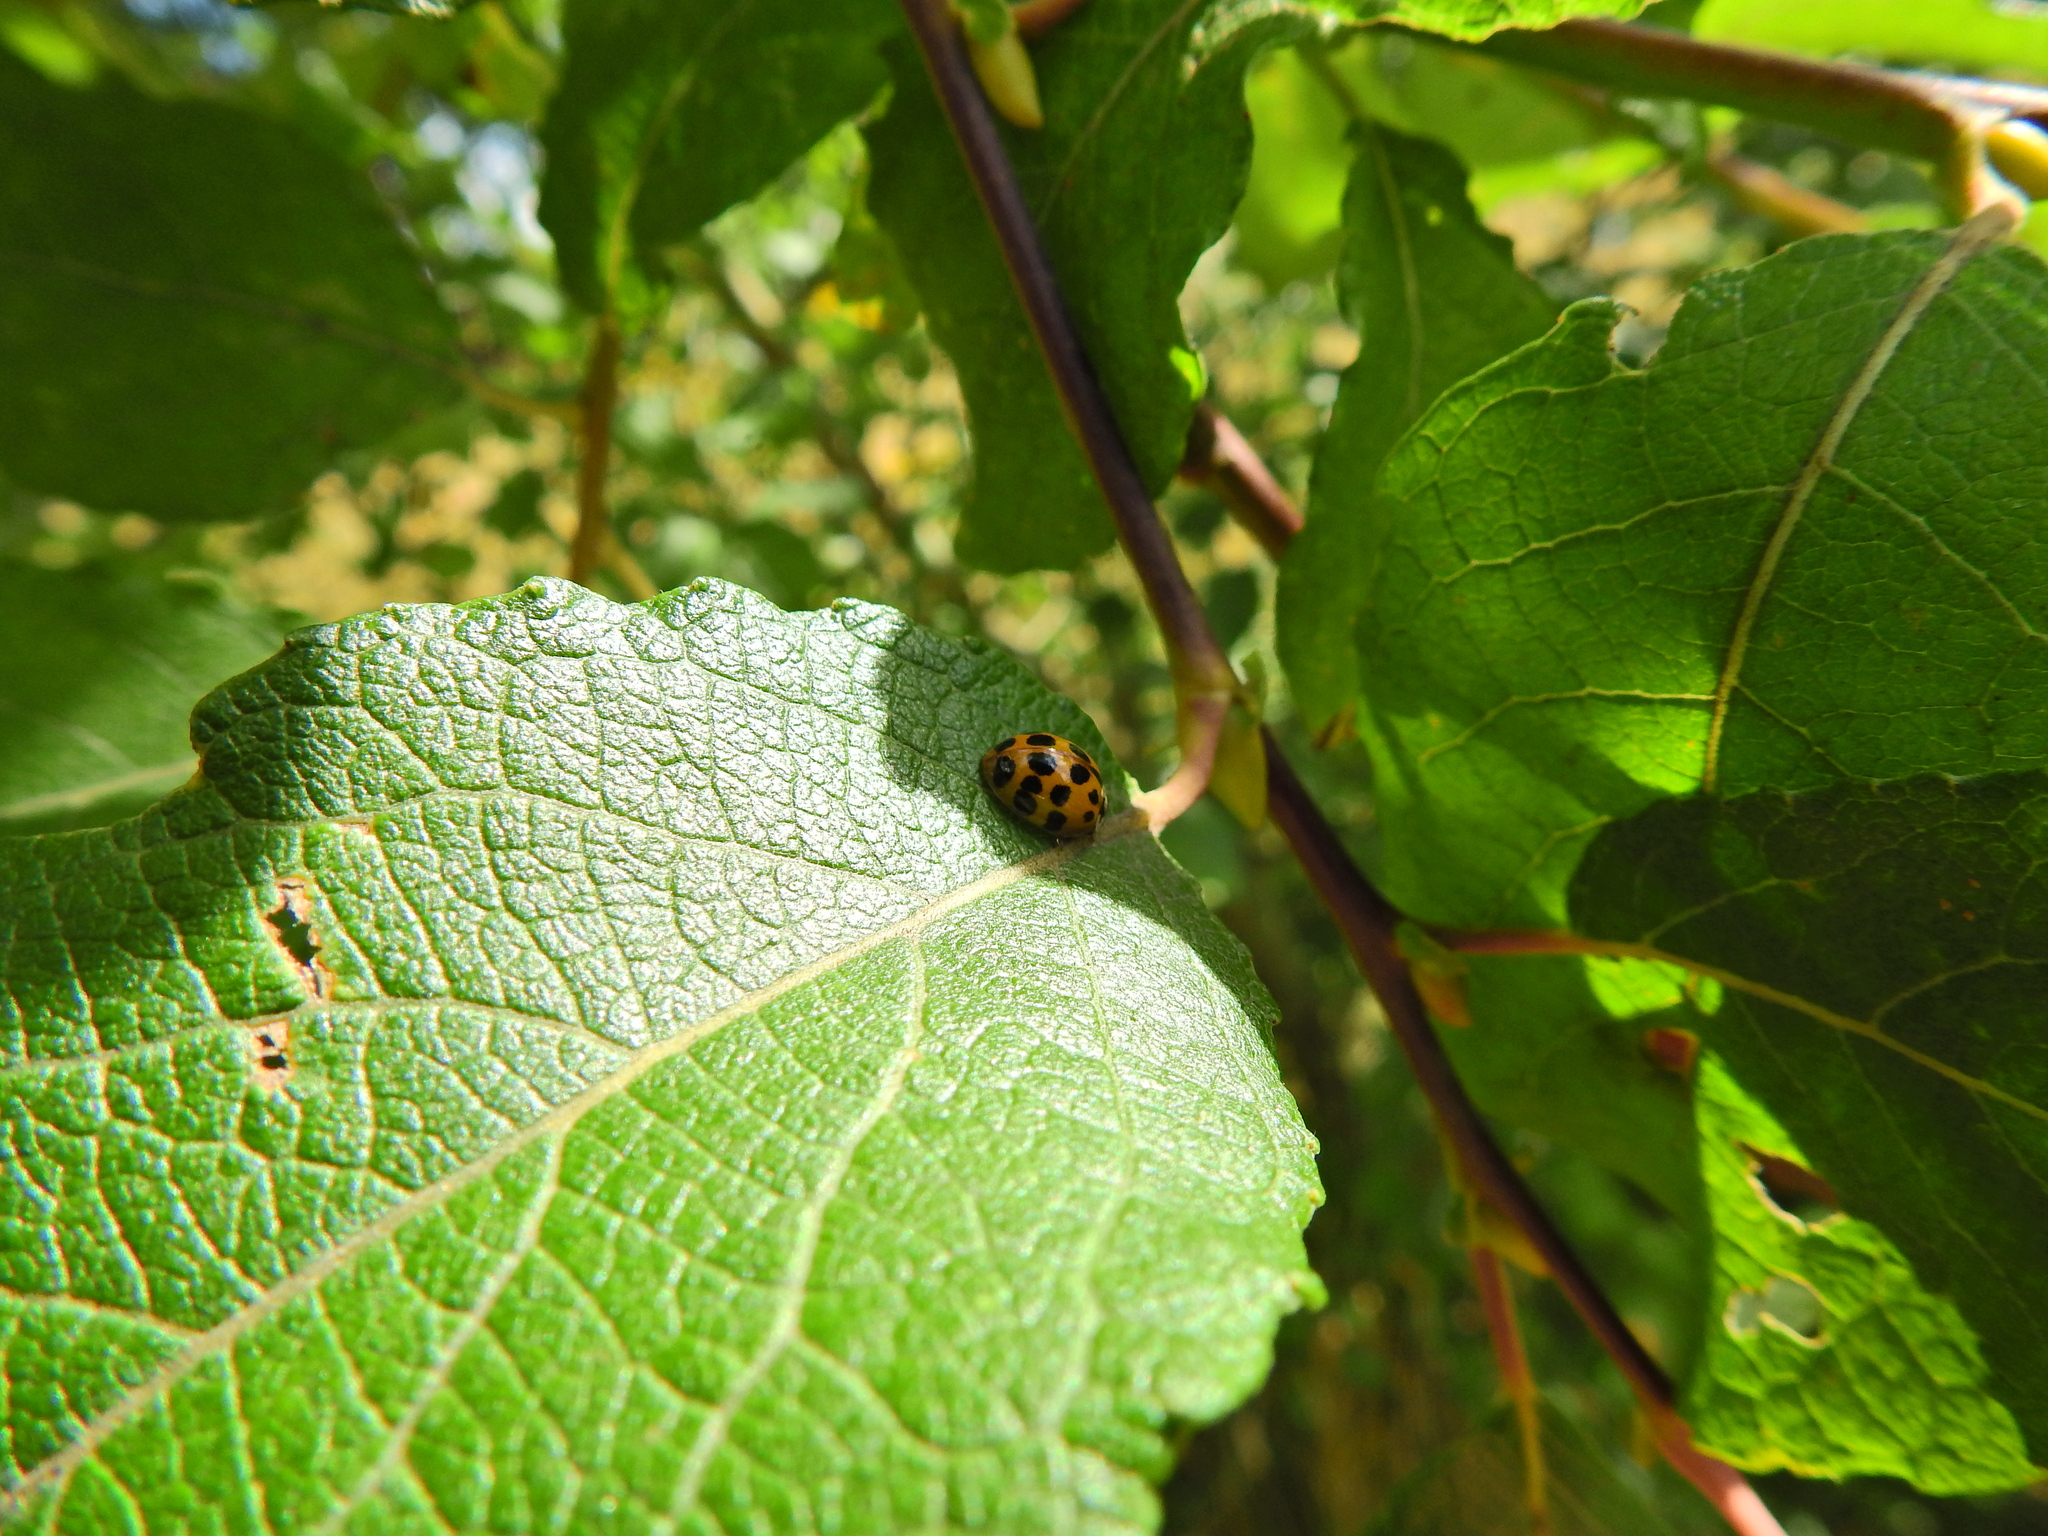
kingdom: Animalia
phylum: Arthropoda
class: Insecta
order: Coleoptera
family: Coccinellidae
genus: Harmonia
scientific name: Harmonia axyridis
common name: Harlequin ladybird
